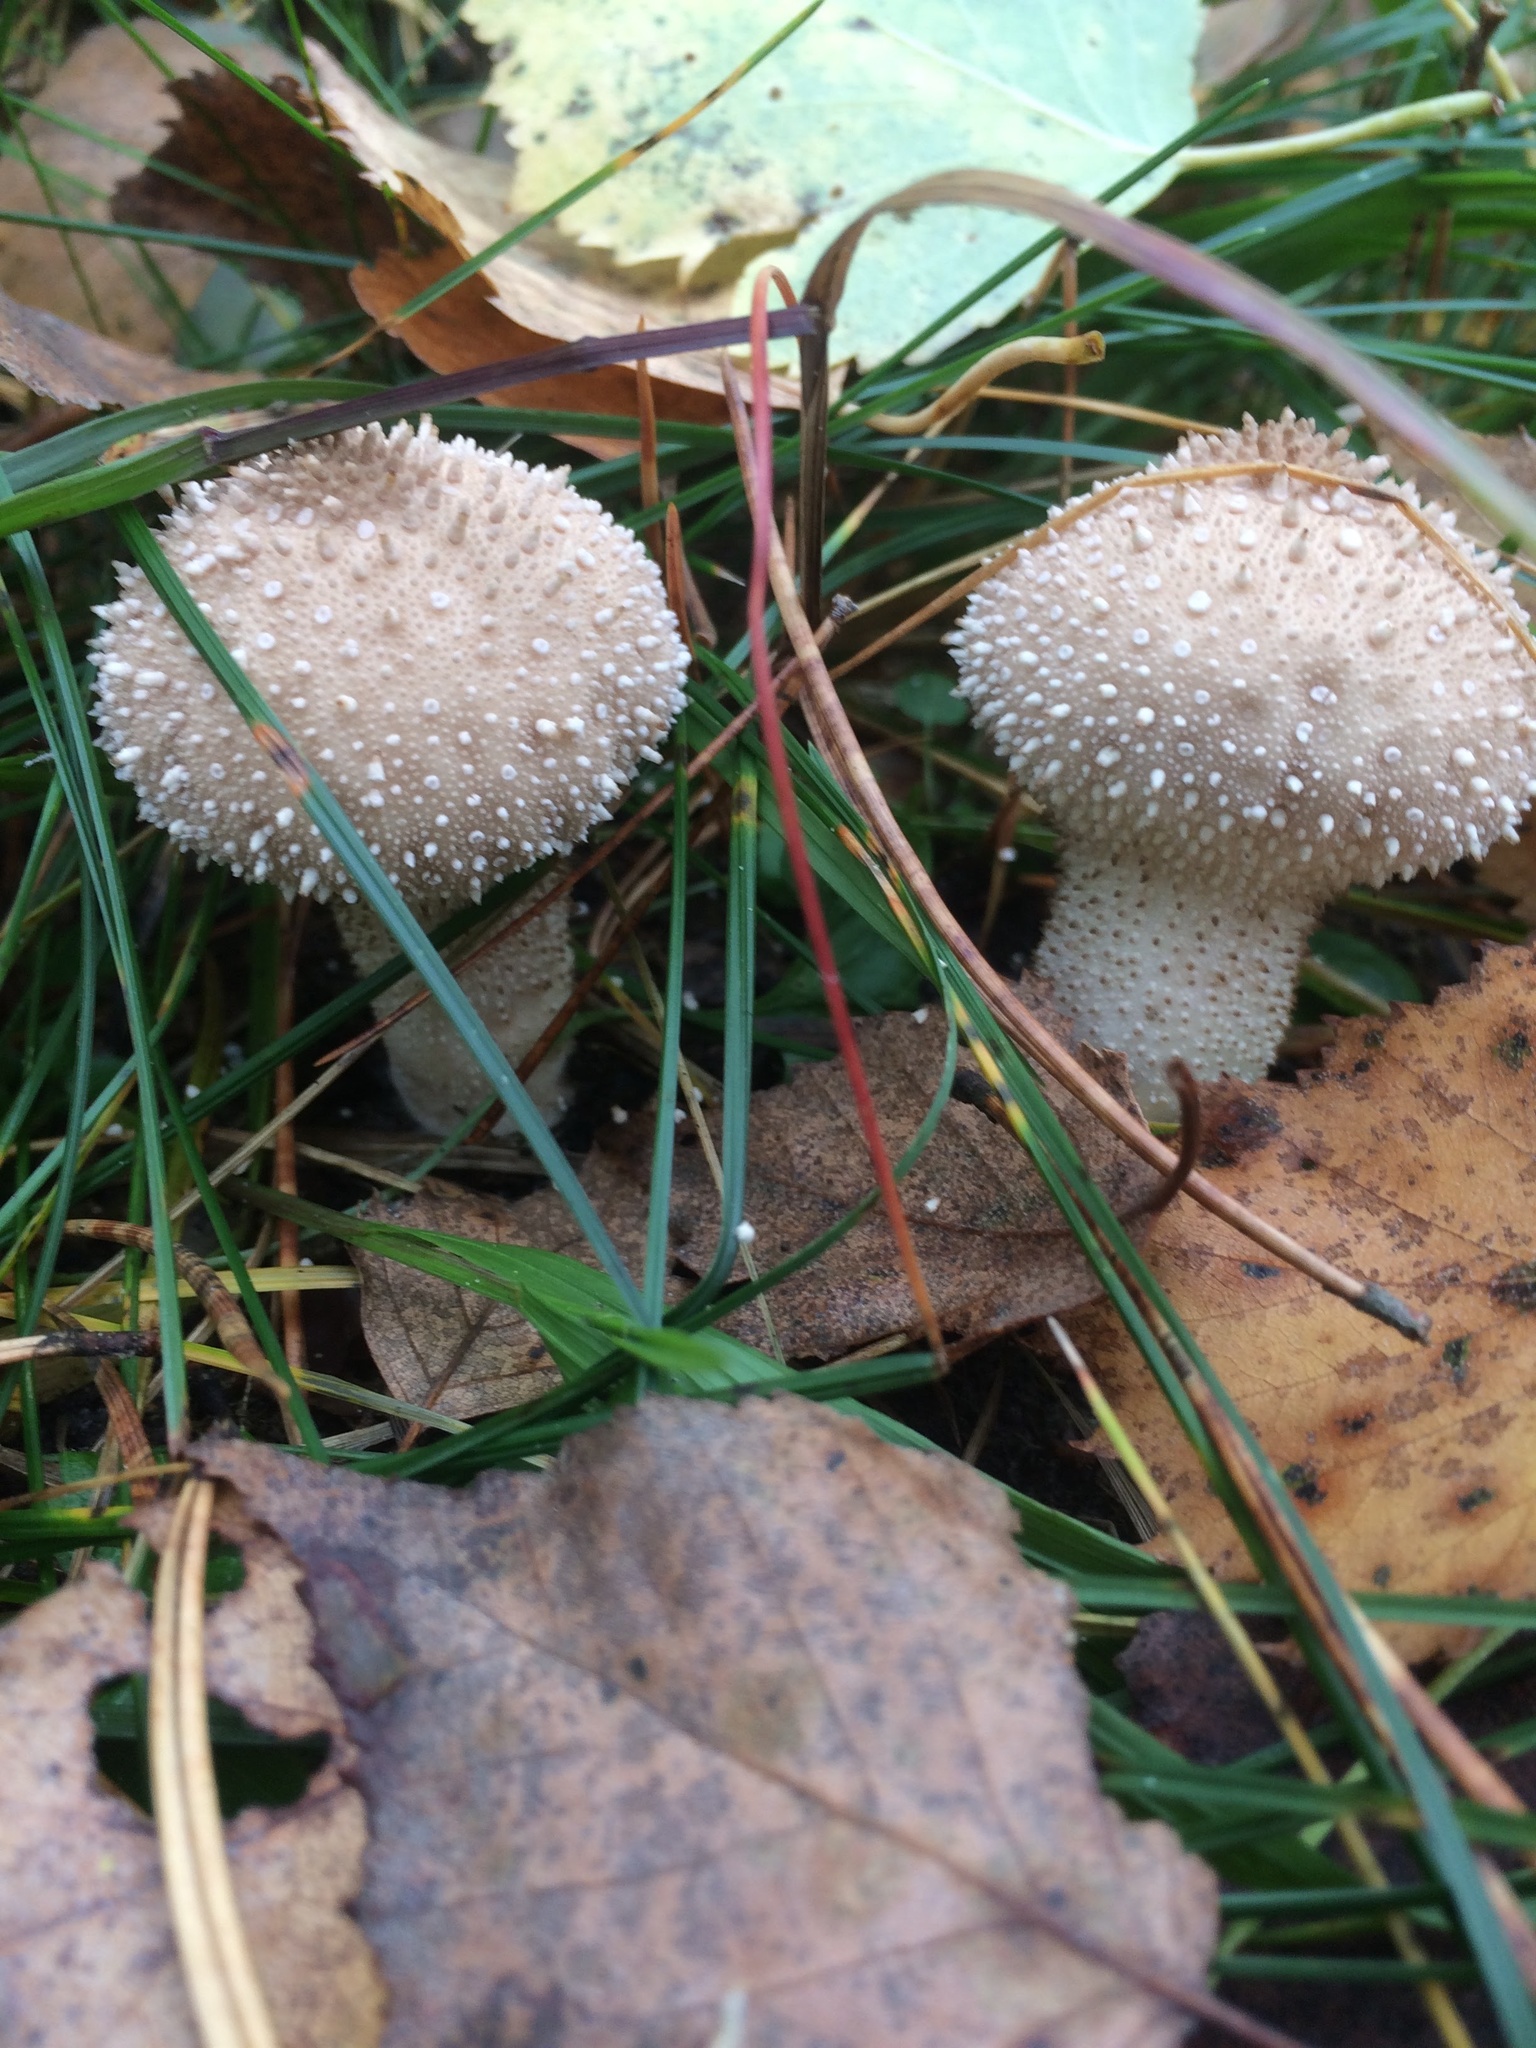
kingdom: Fungi
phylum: Basidiomycota
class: Agaricomycetes
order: Agaricales
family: Lycoperdaceae
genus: Lycoperdon
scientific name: Lycoperdon perlatum
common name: Common puffball
